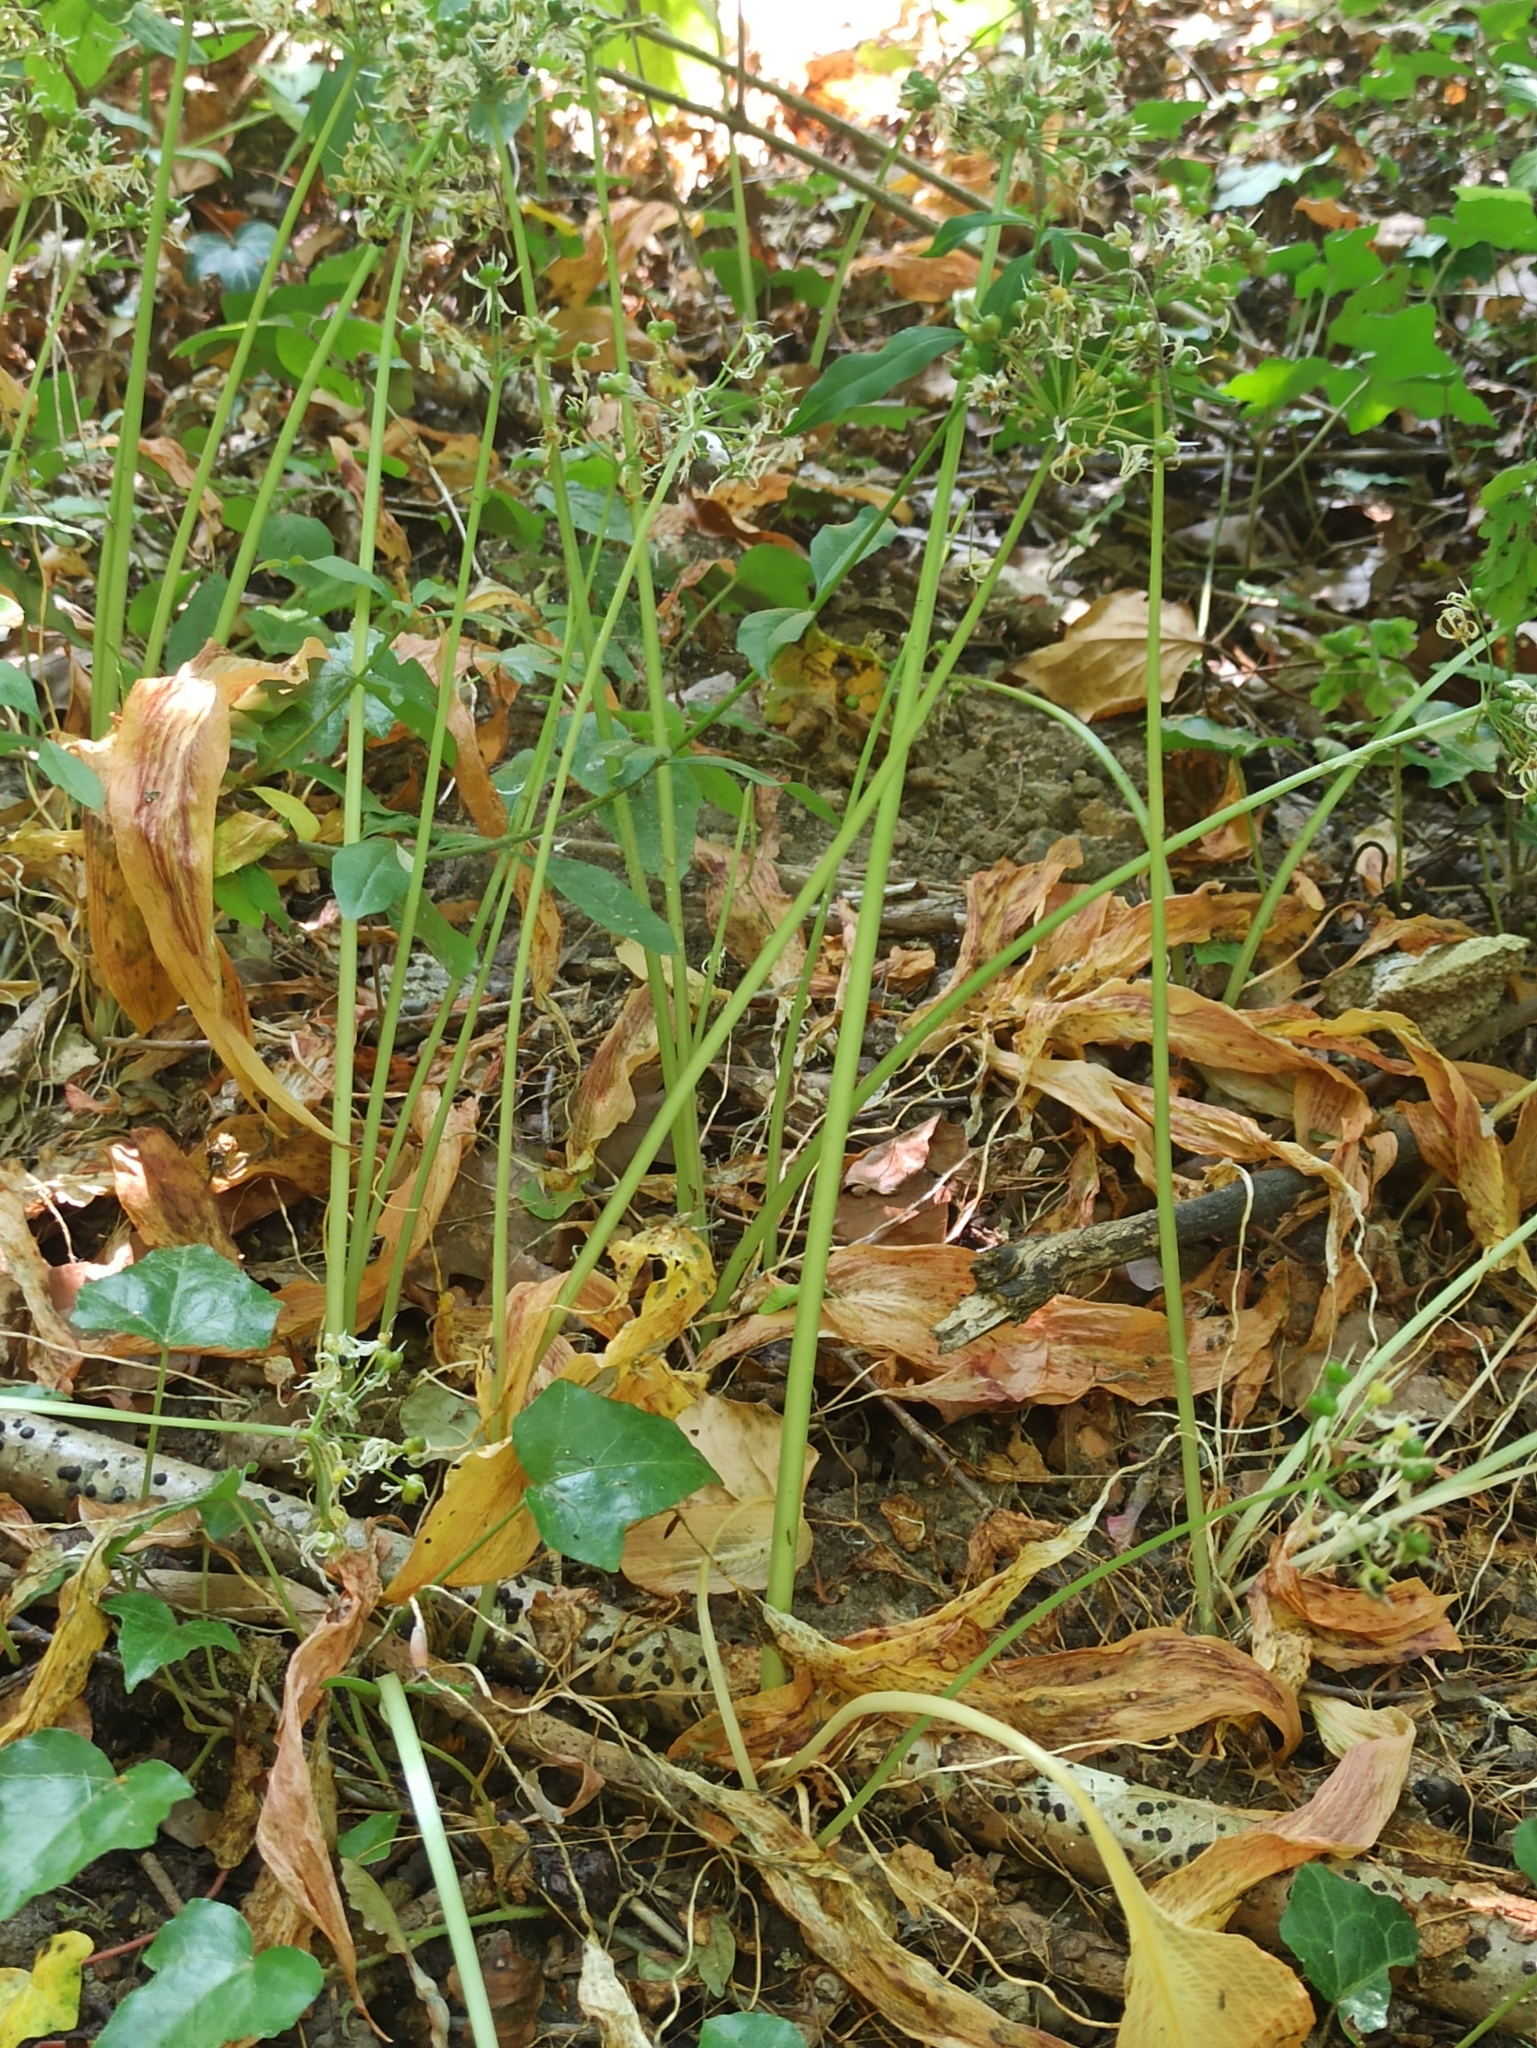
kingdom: Plantae
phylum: Tracheophyta
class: Liliopsida
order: Asparagales
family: Amaryllidaceae
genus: Allium
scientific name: Allium ursinum
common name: Ramsons
